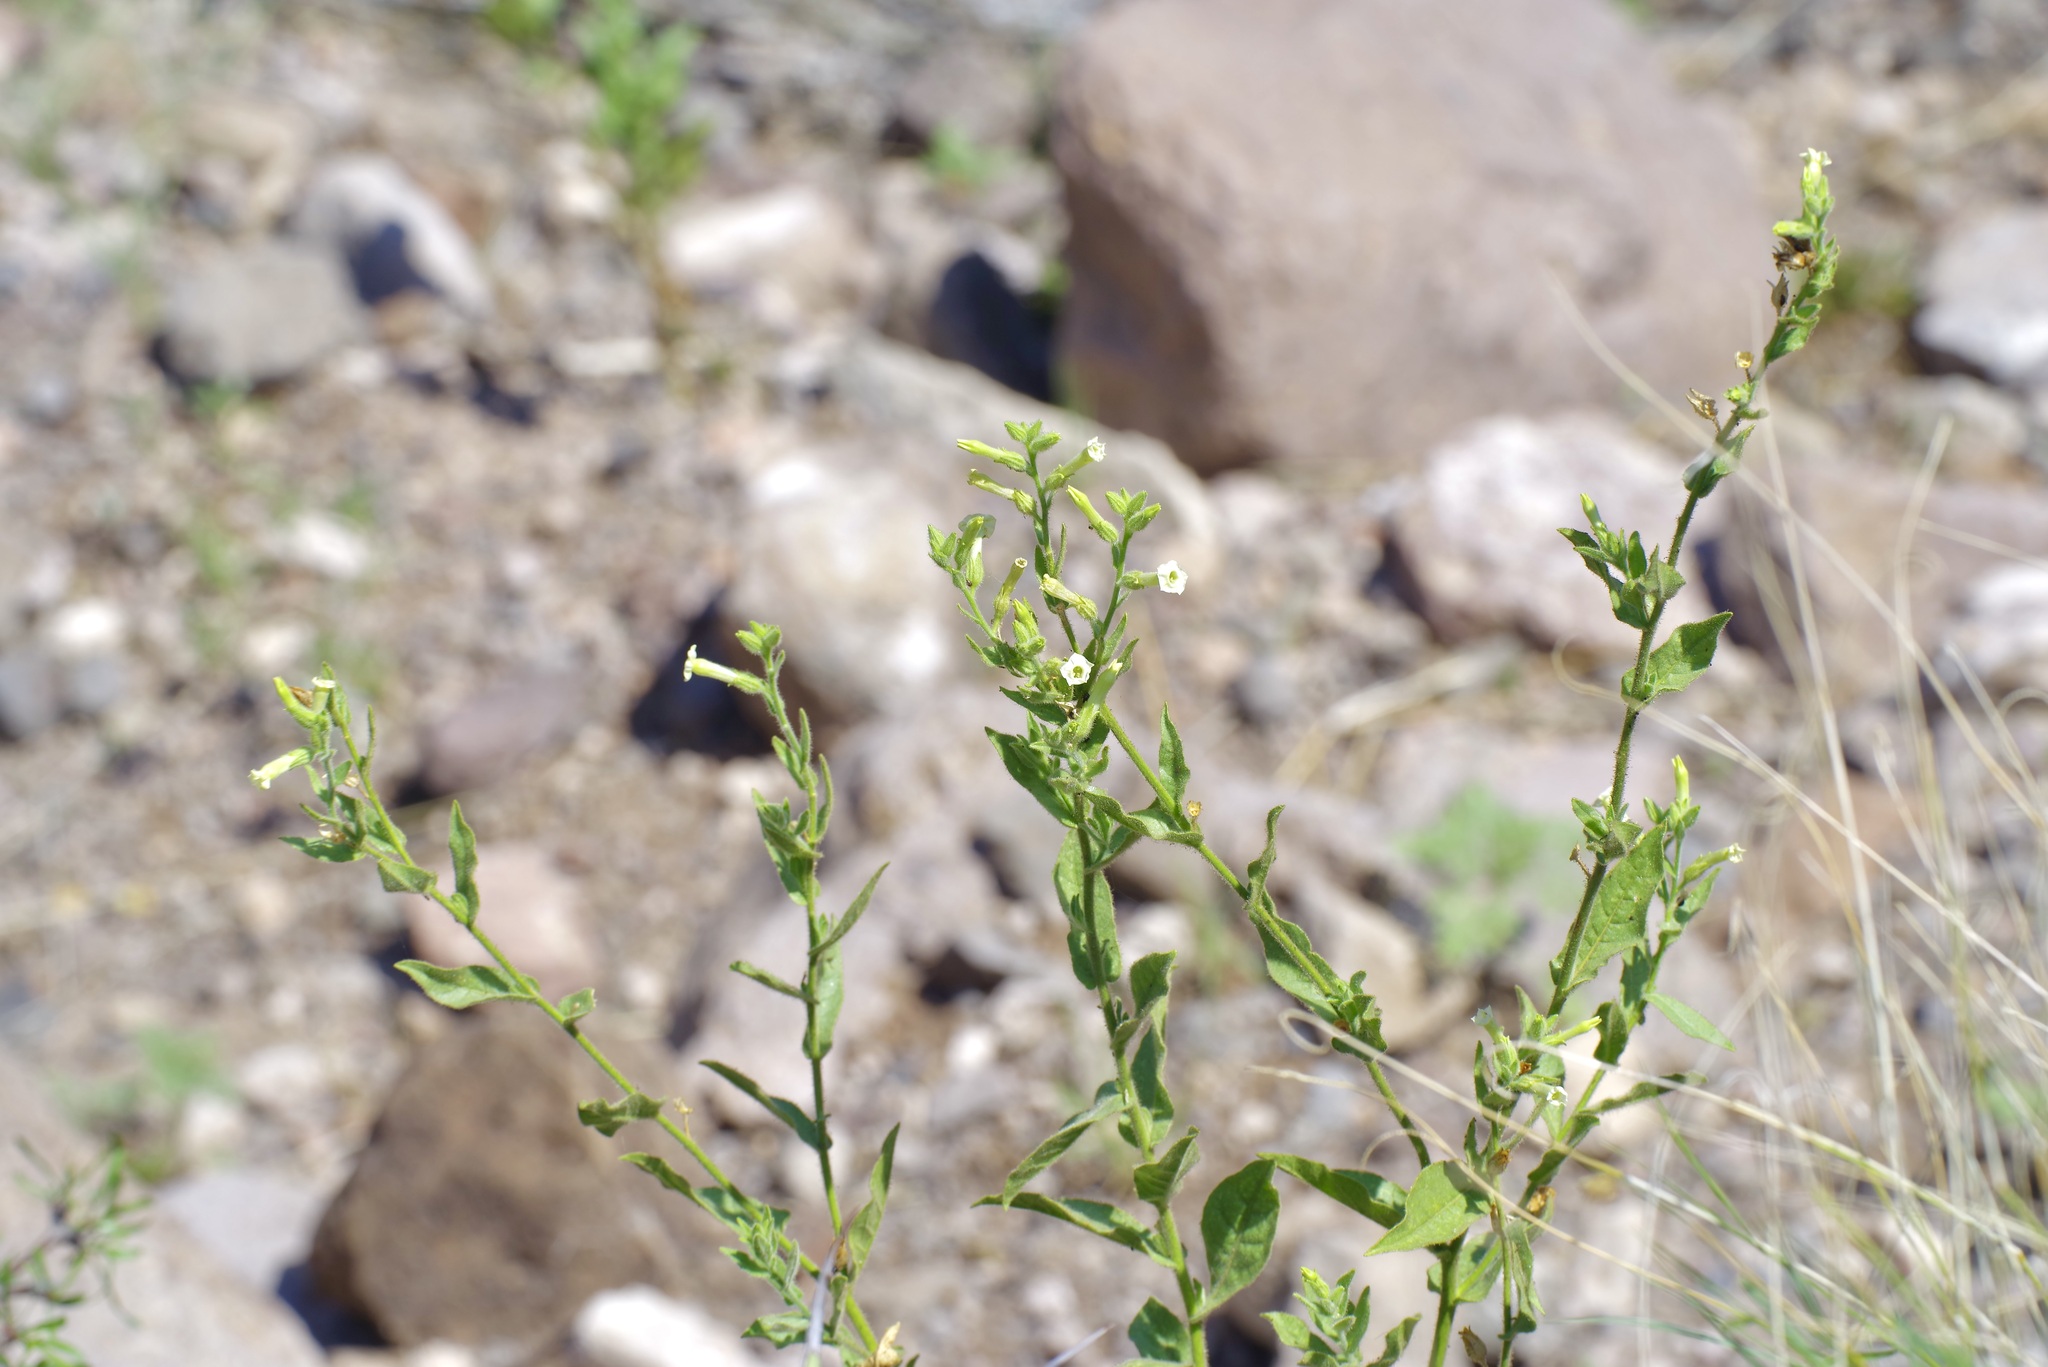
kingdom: Plantae
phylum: Tracheophyta
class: Magnoliopsida
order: Solanales
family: Solanaceae
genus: Nicotiana
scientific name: Nicotiana obtusifolia
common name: Desert tobacco
